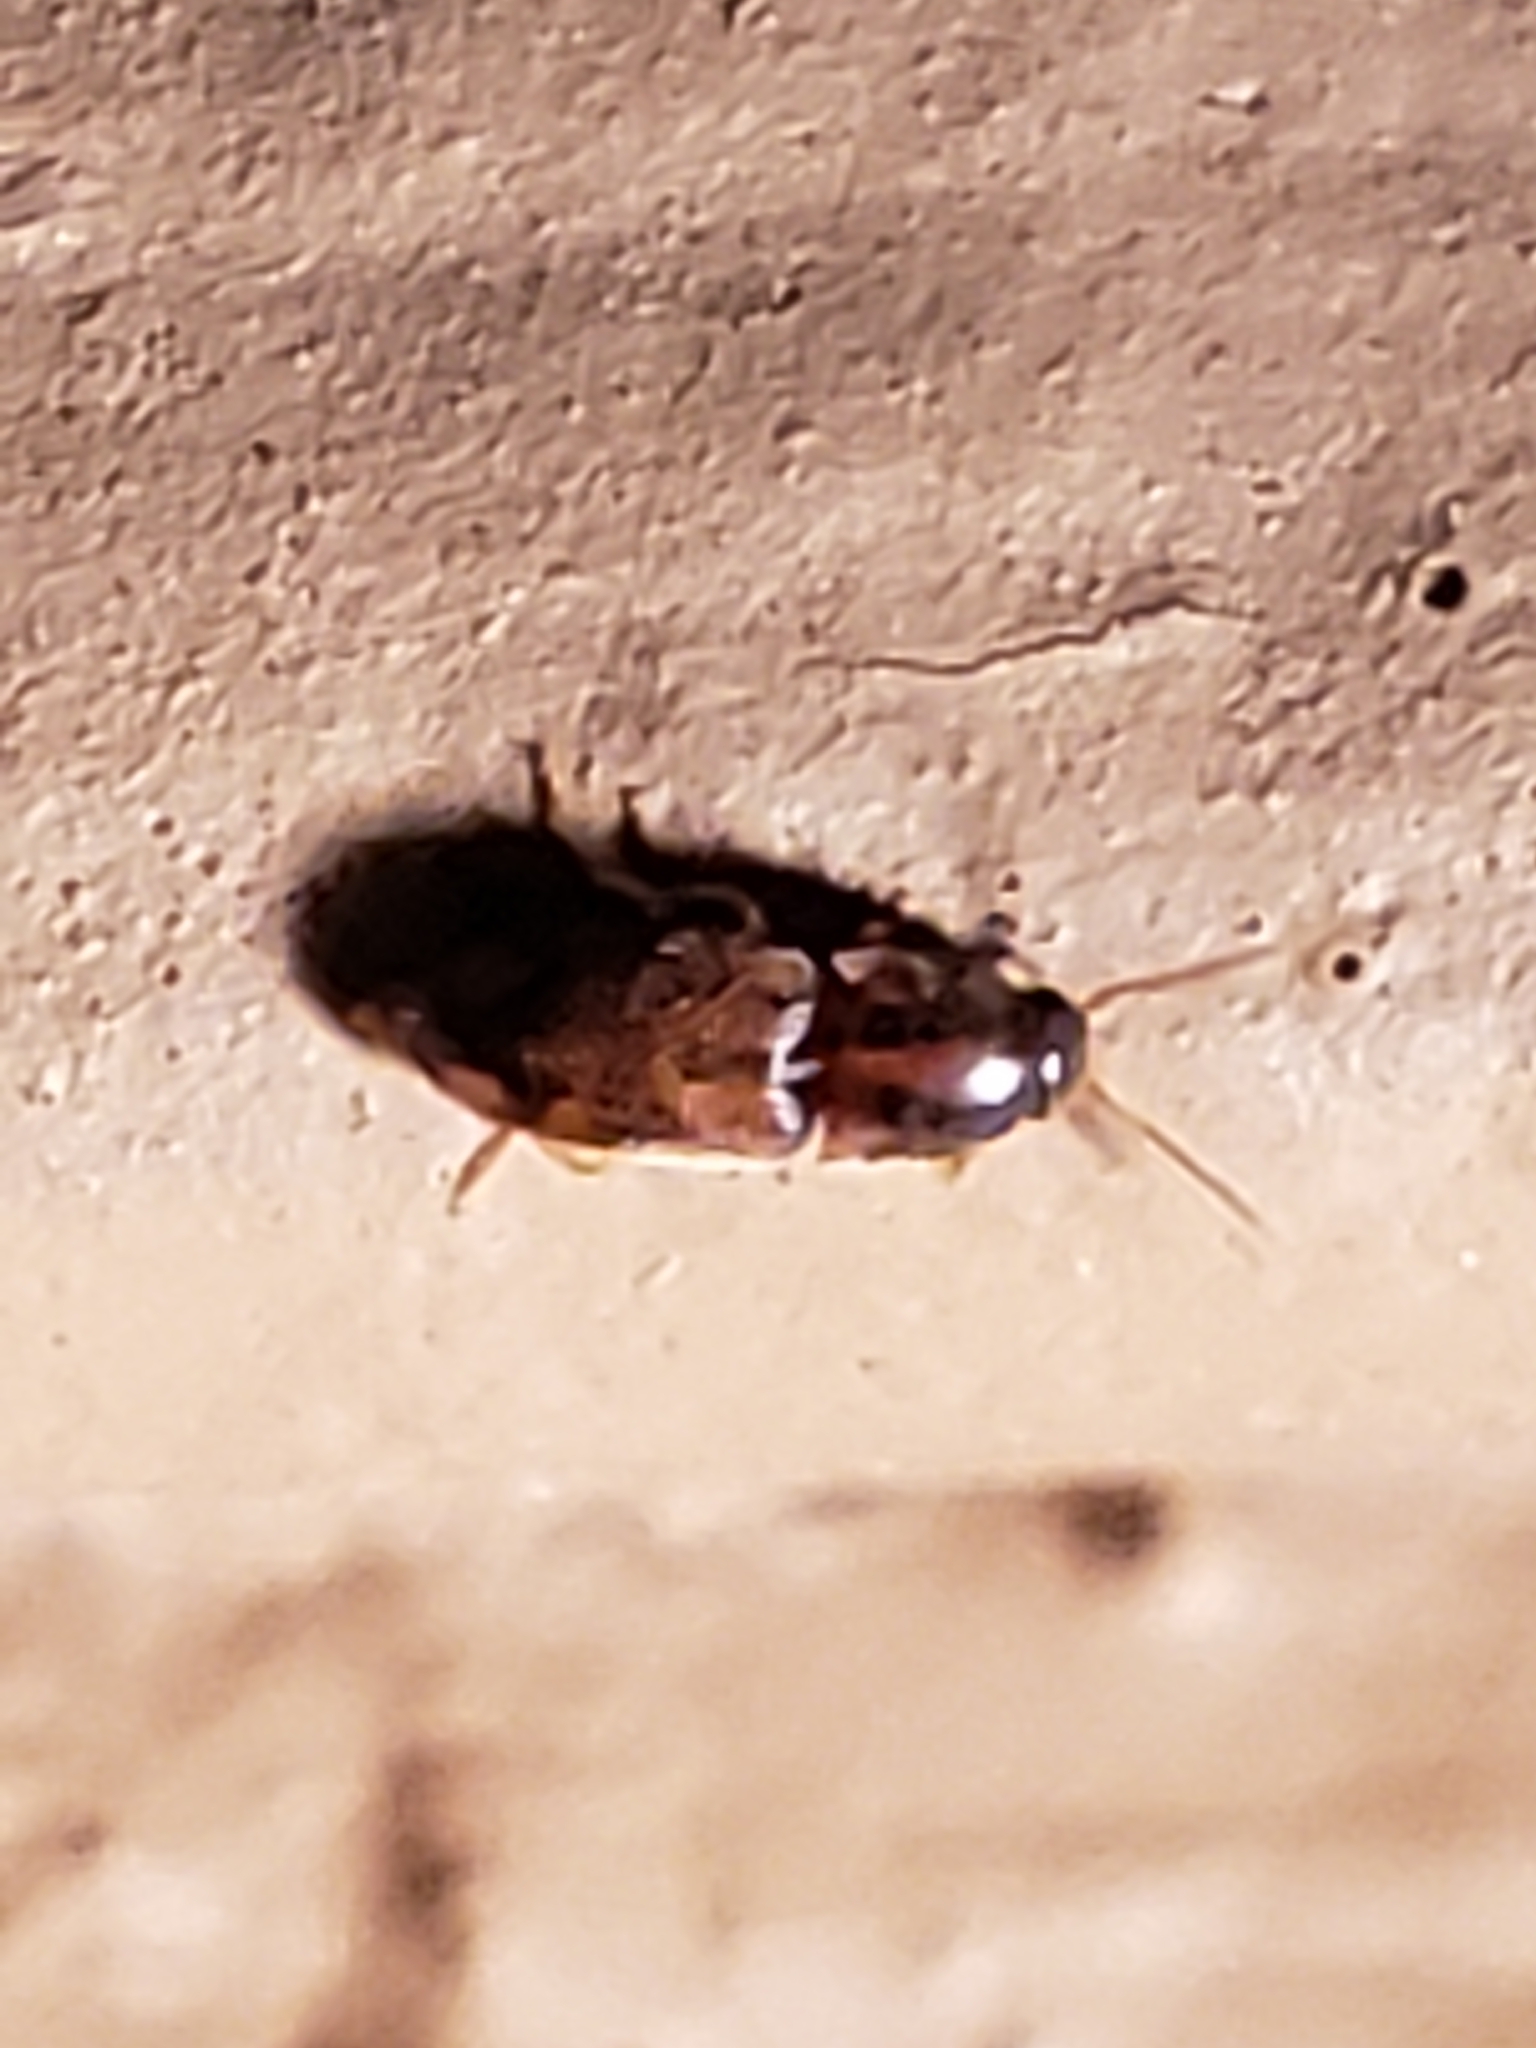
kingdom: Animalia
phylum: Arthropoda
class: Insecta
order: Coleoptera
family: Elateridae
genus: Monocrepidius
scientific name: Monocrepidius bellus
